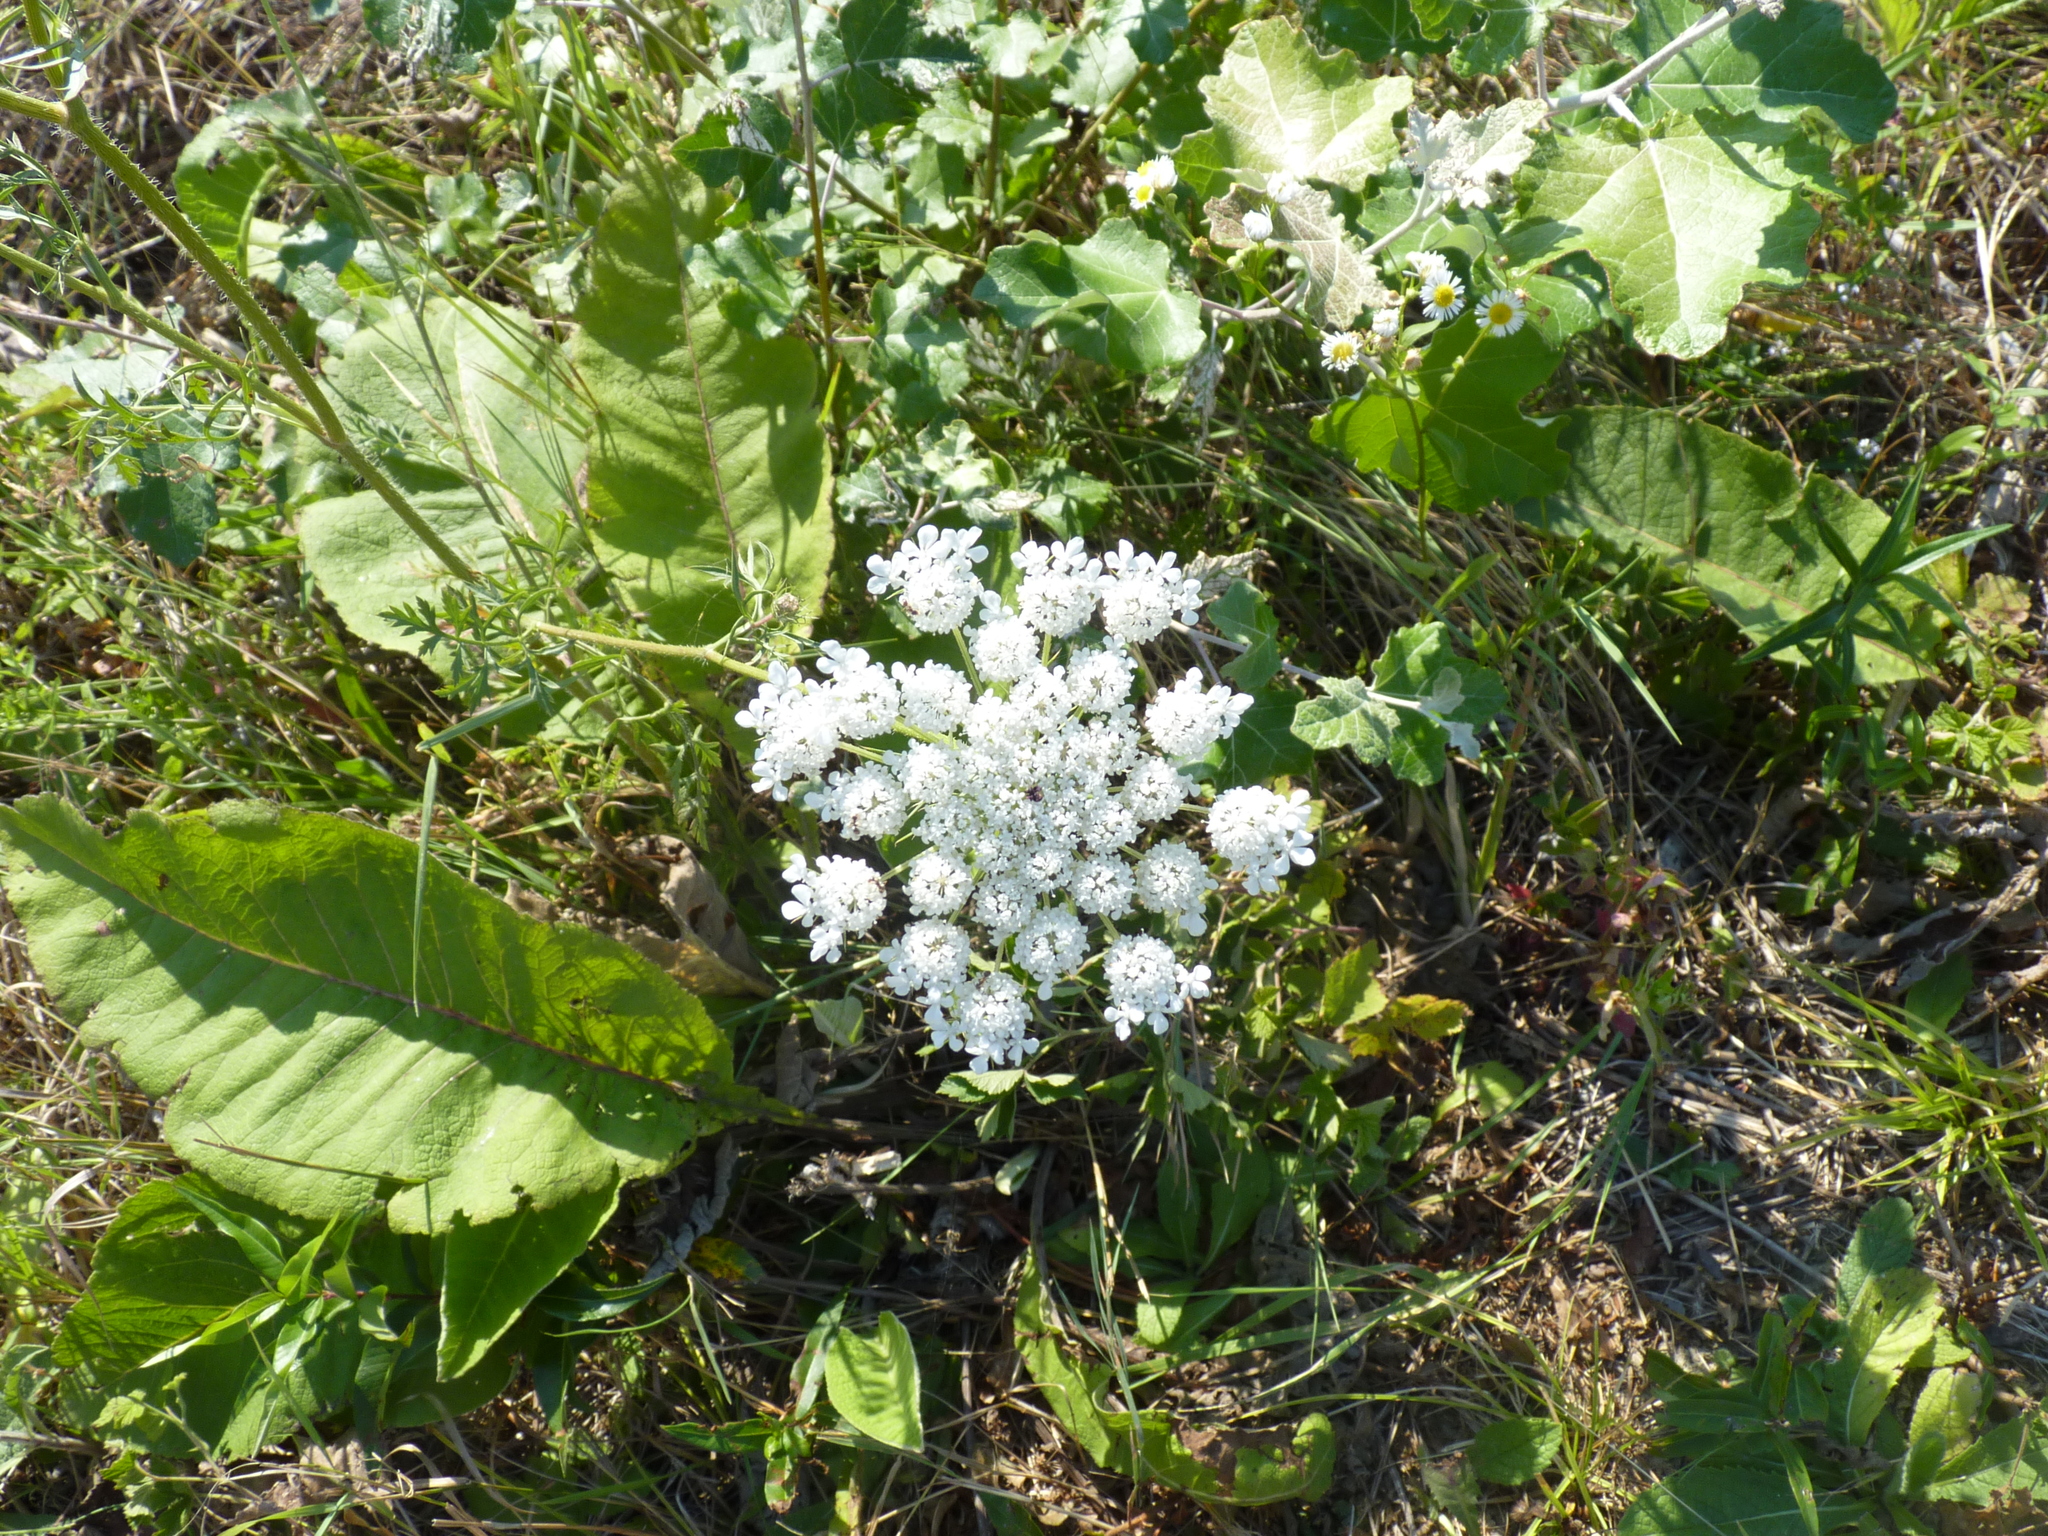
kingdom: Plantae
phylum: Tracheophyta
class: Magnoliopsida
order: Apiales
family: Apiaceae
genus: Daucus
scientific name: Daucus carota
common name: Wild carrot
